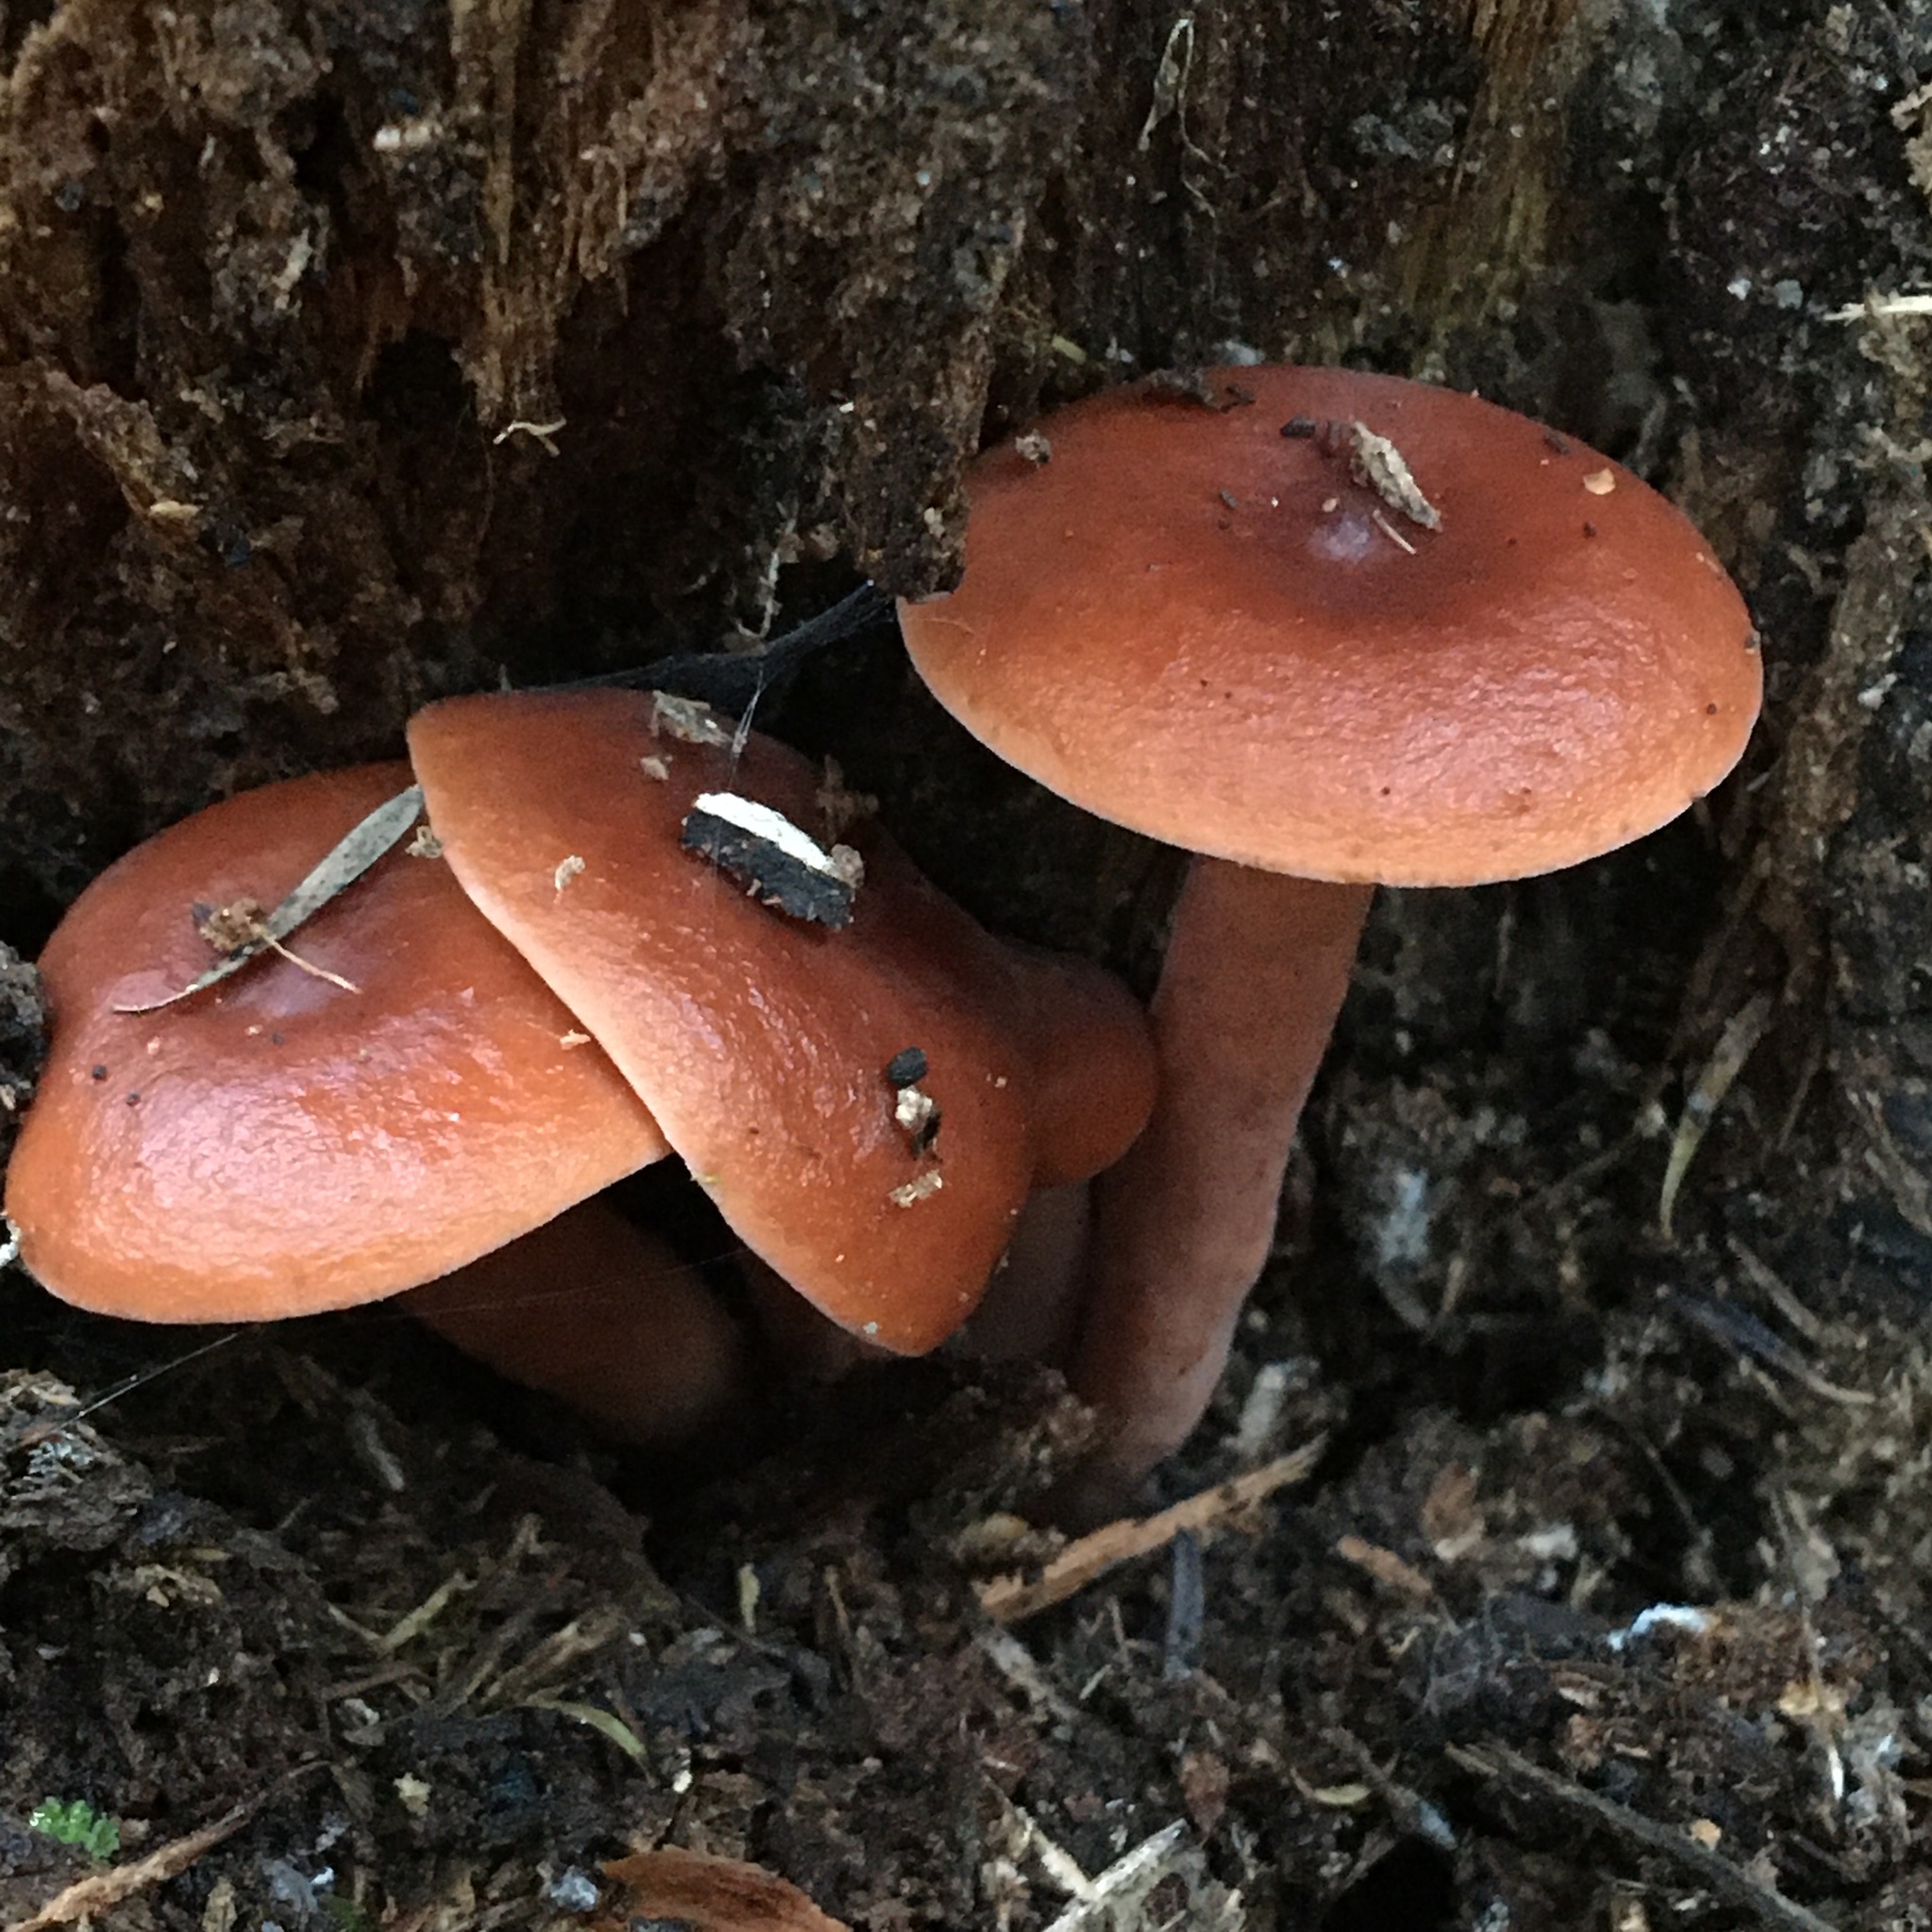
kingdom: Fungi
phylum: Basidiomycota
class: Agaricomycetes
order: Russulales
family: Russulaceae
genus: Lactarius
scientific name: Lactarius eucalypti
